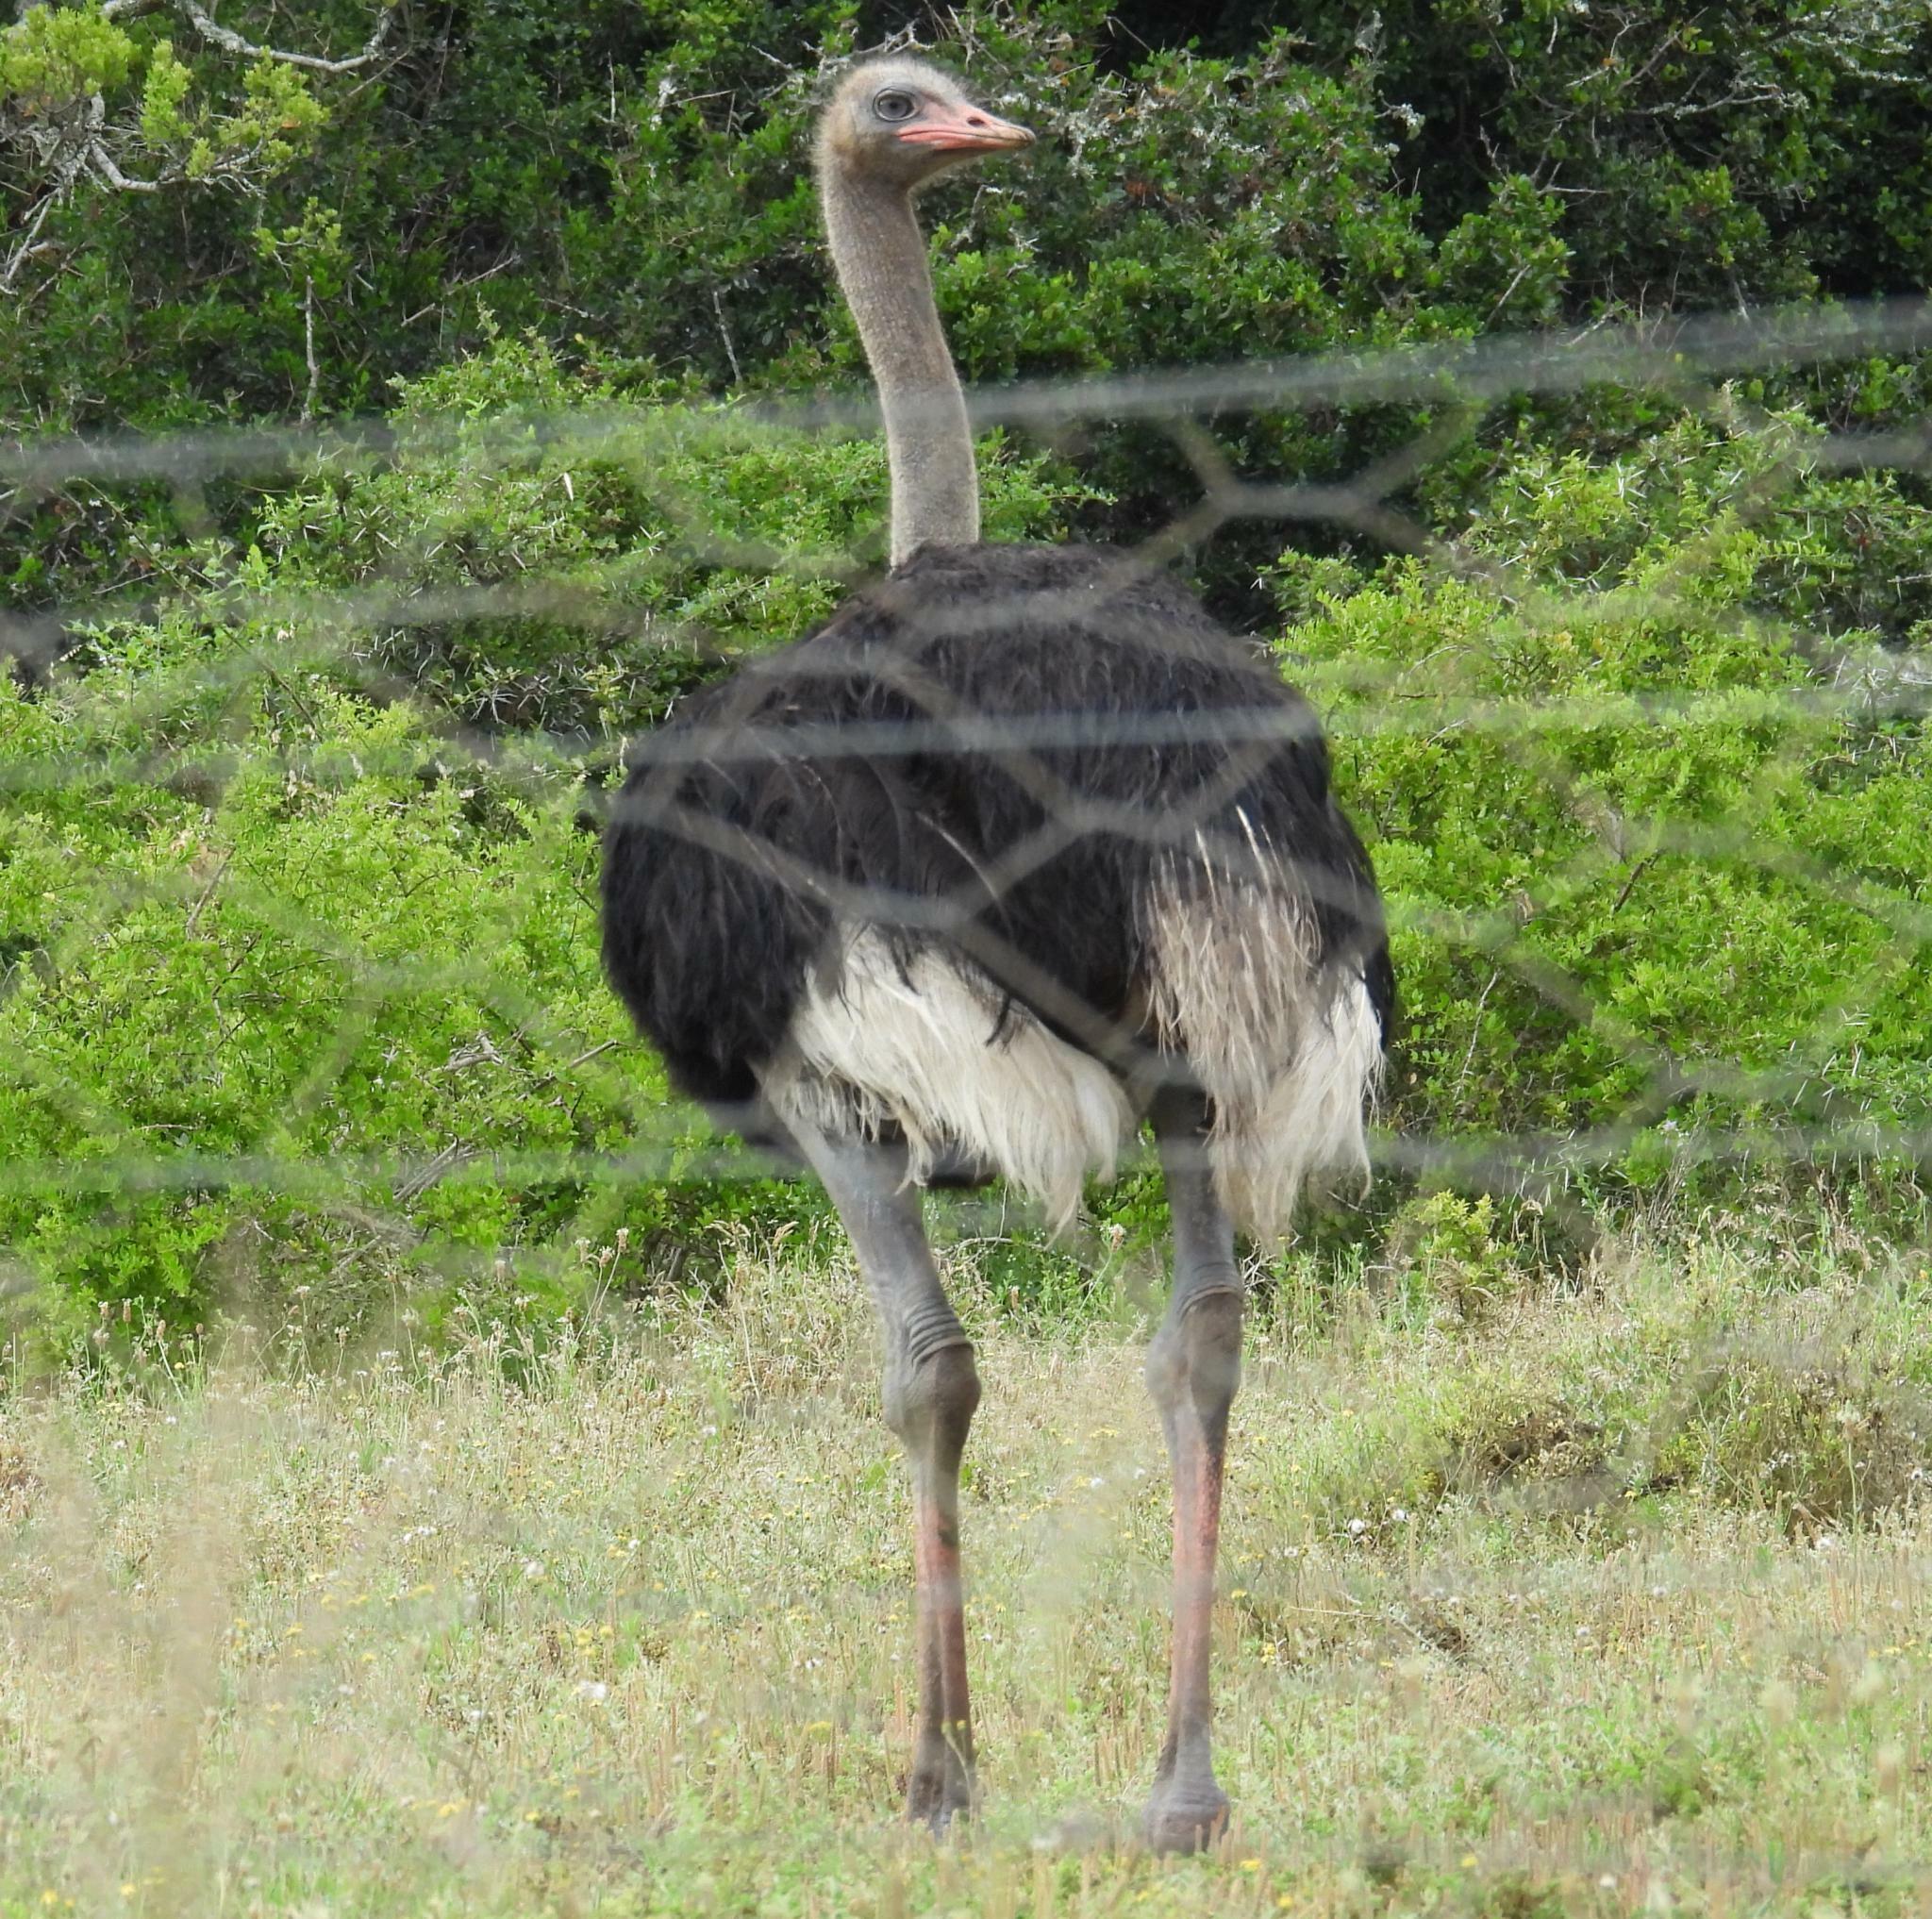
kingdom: Animalia
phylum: Chordata
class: Aves
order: Struthioniformes
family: Struthionidae
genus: Struthio
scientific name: Struthio camelus
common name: Common ostrich
